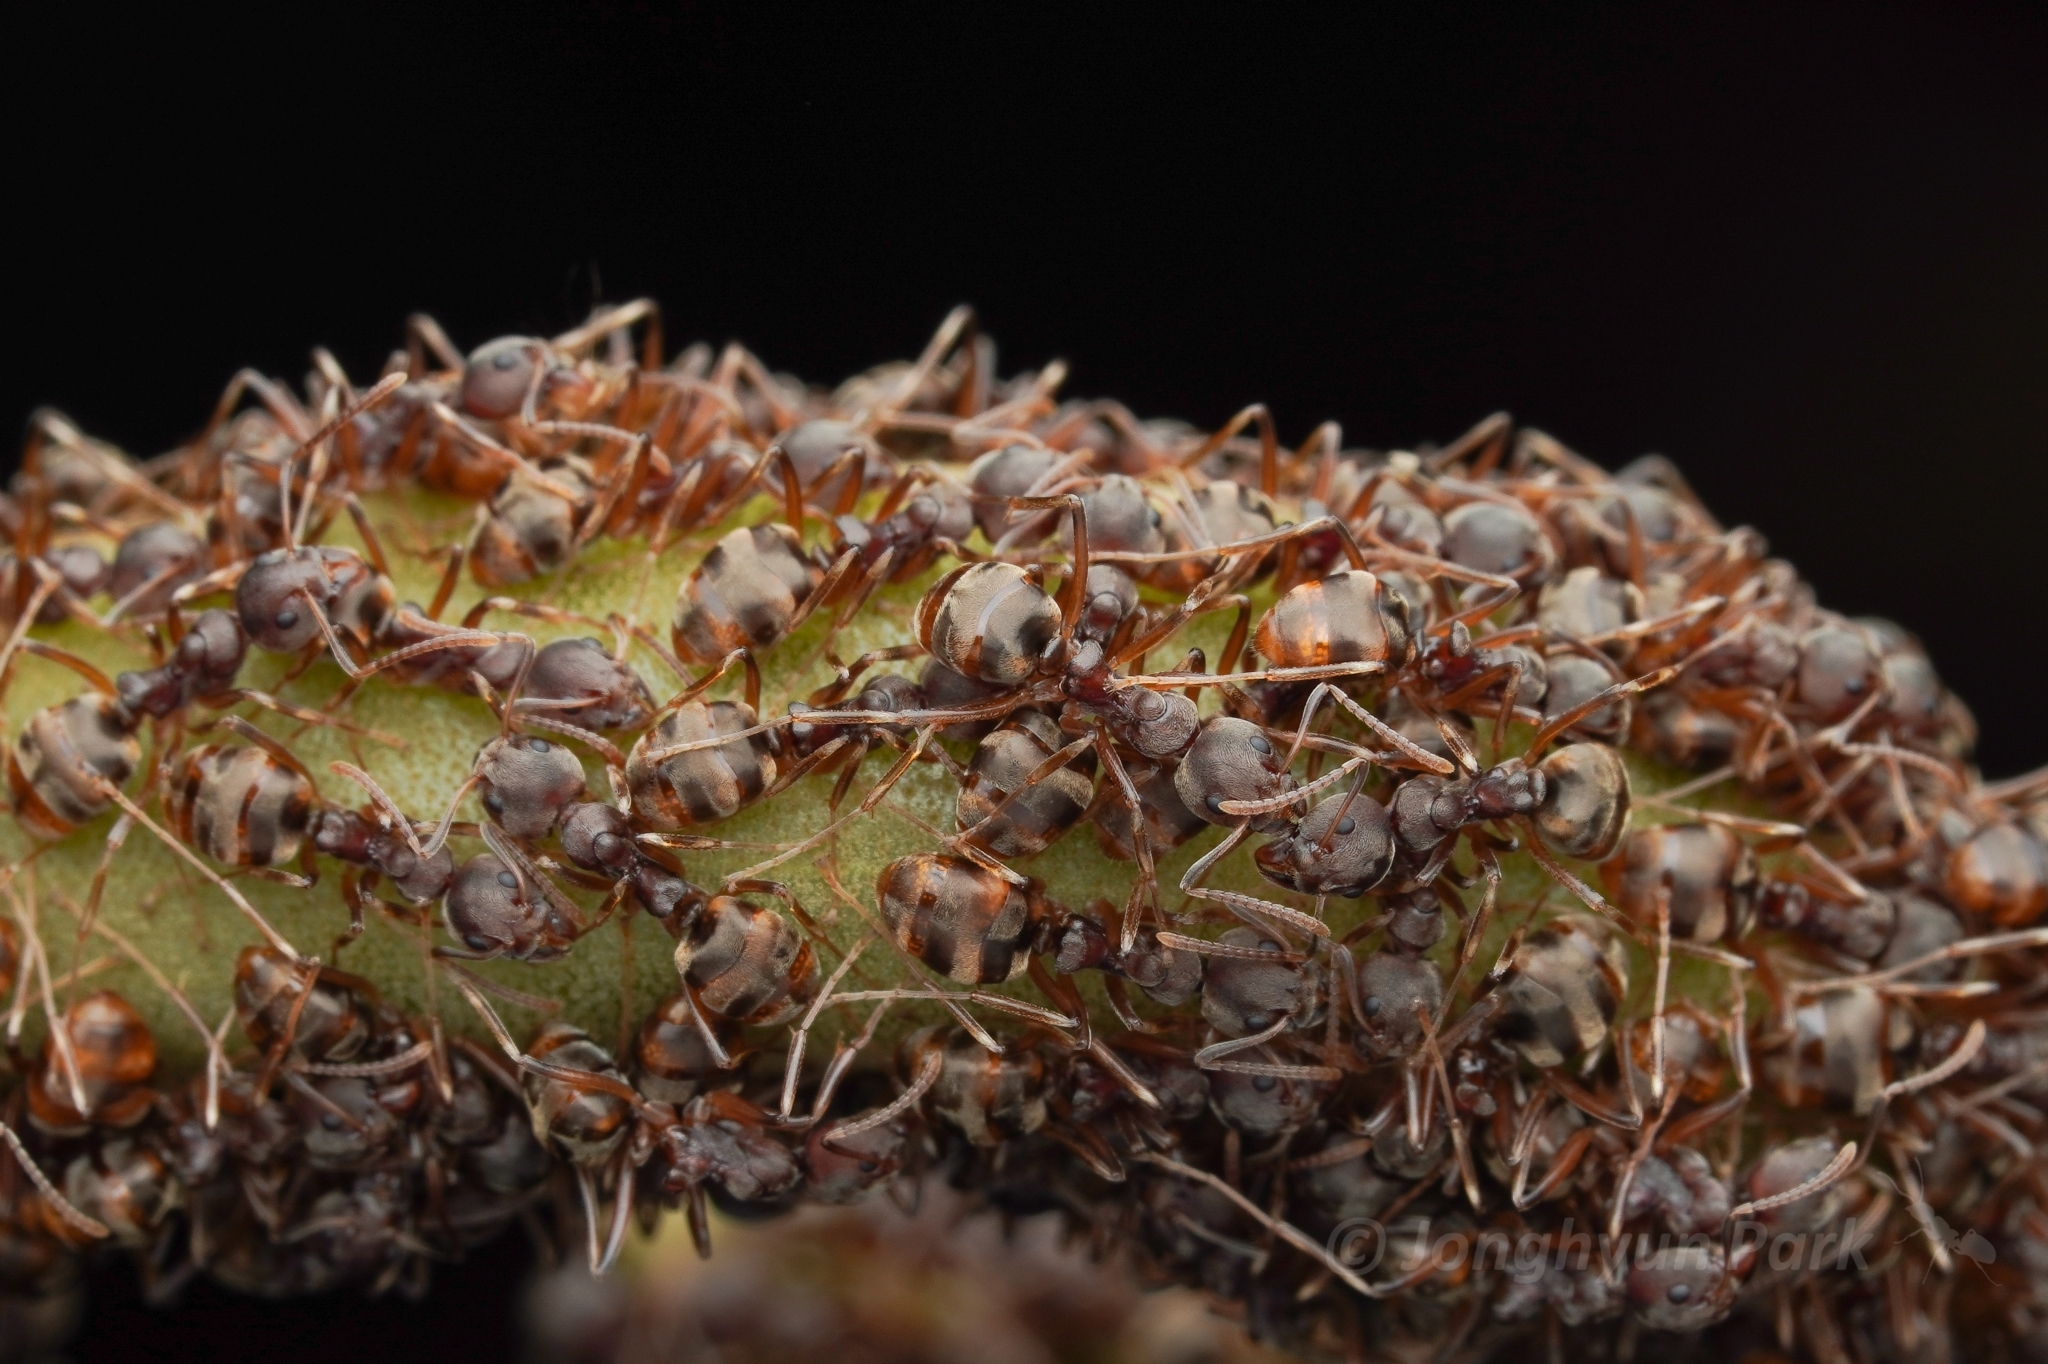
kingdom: Animalia
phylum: Arthropoda
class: Insecta
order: Hymenoptera
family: Formicidae
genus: Dolichoderus
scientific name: Dolichoderus
